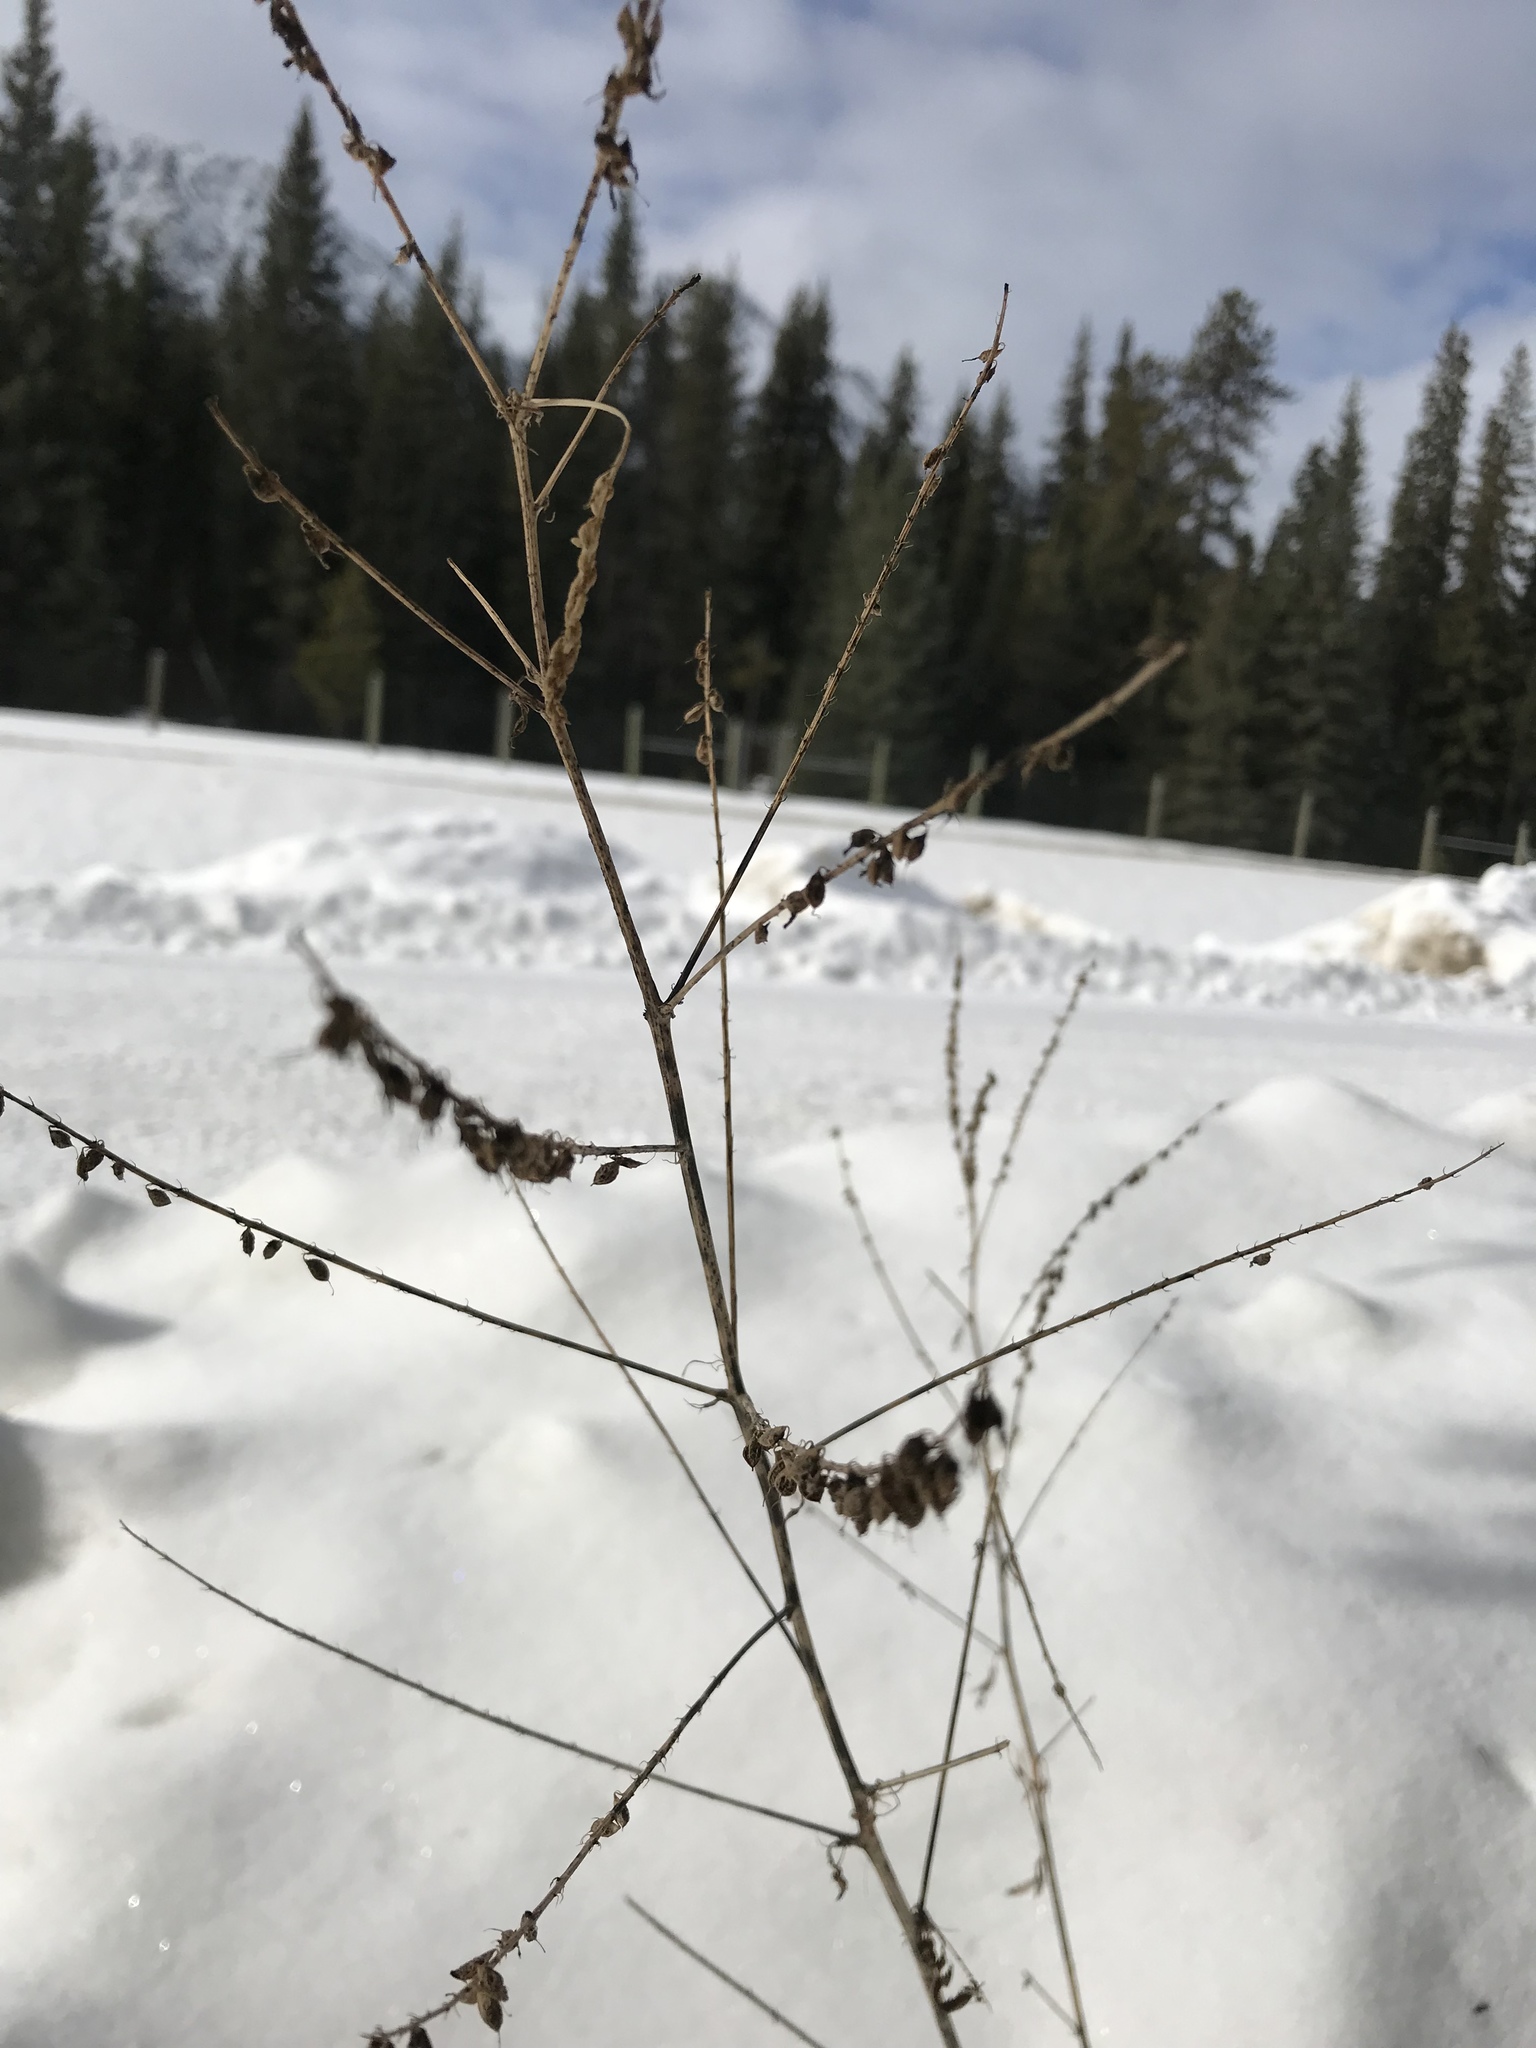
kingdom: Plantae
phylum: Tracheophyta
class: Magnoliopsida
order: Fabales
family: Fabaceae
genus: Melilotus
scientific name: Melilotus
